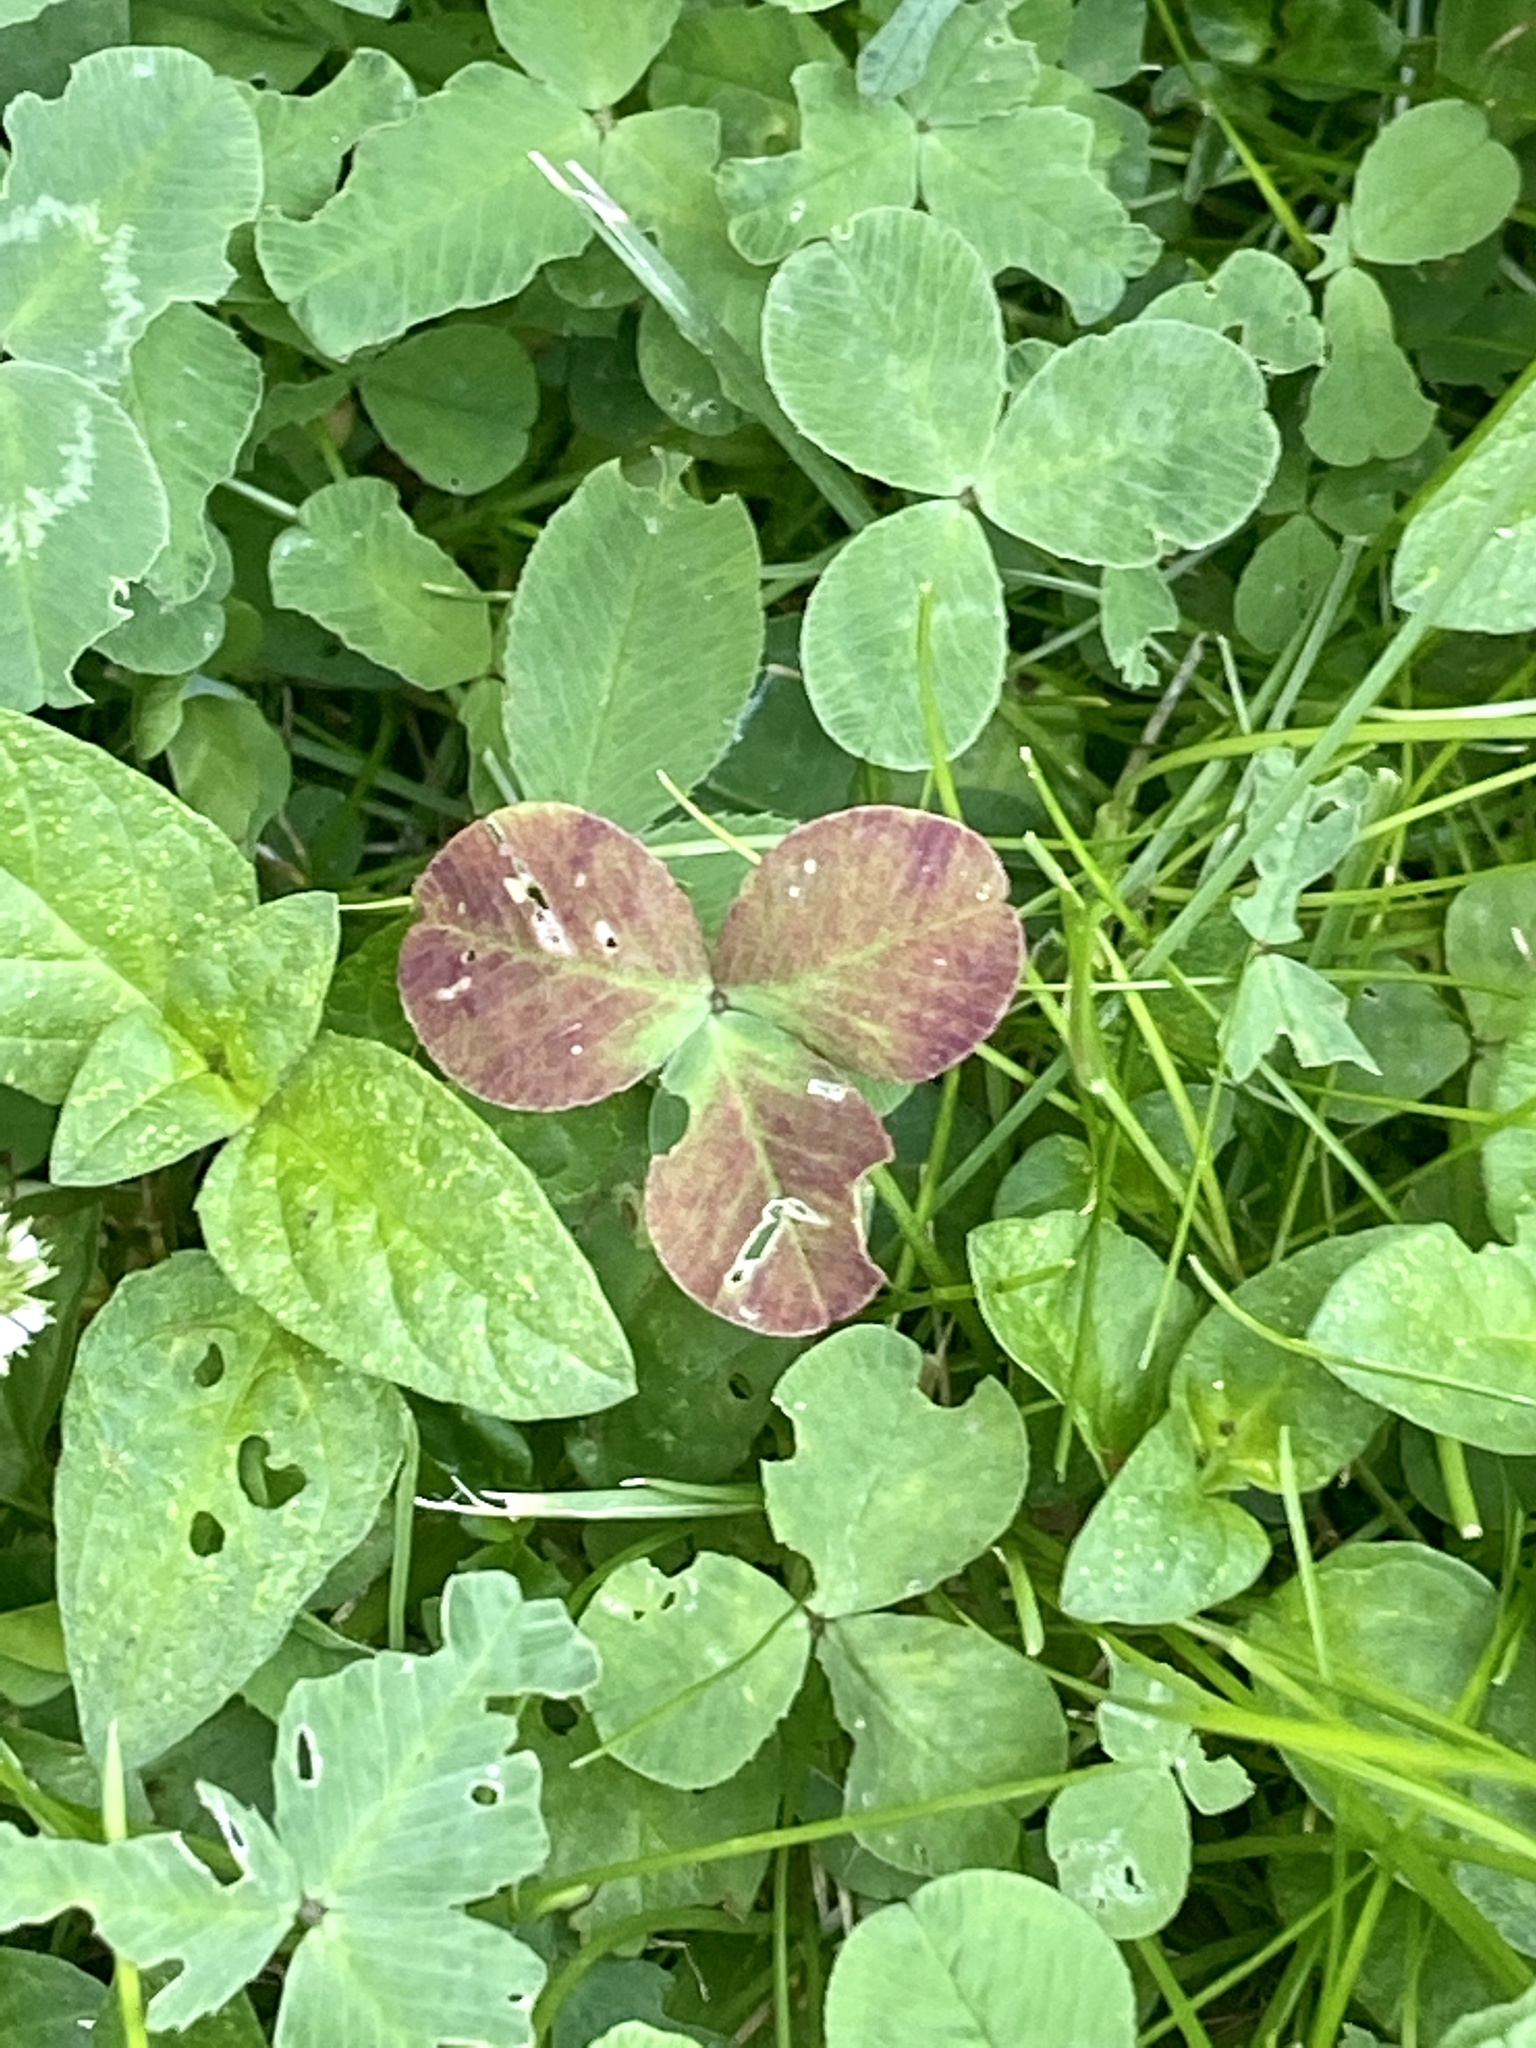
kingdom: Plantae
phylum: Tracheophyta
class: Magnoliopsida
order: Fabales
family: Fabaceae
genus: Trifolium
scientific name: Trifolium repens
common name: White clover
